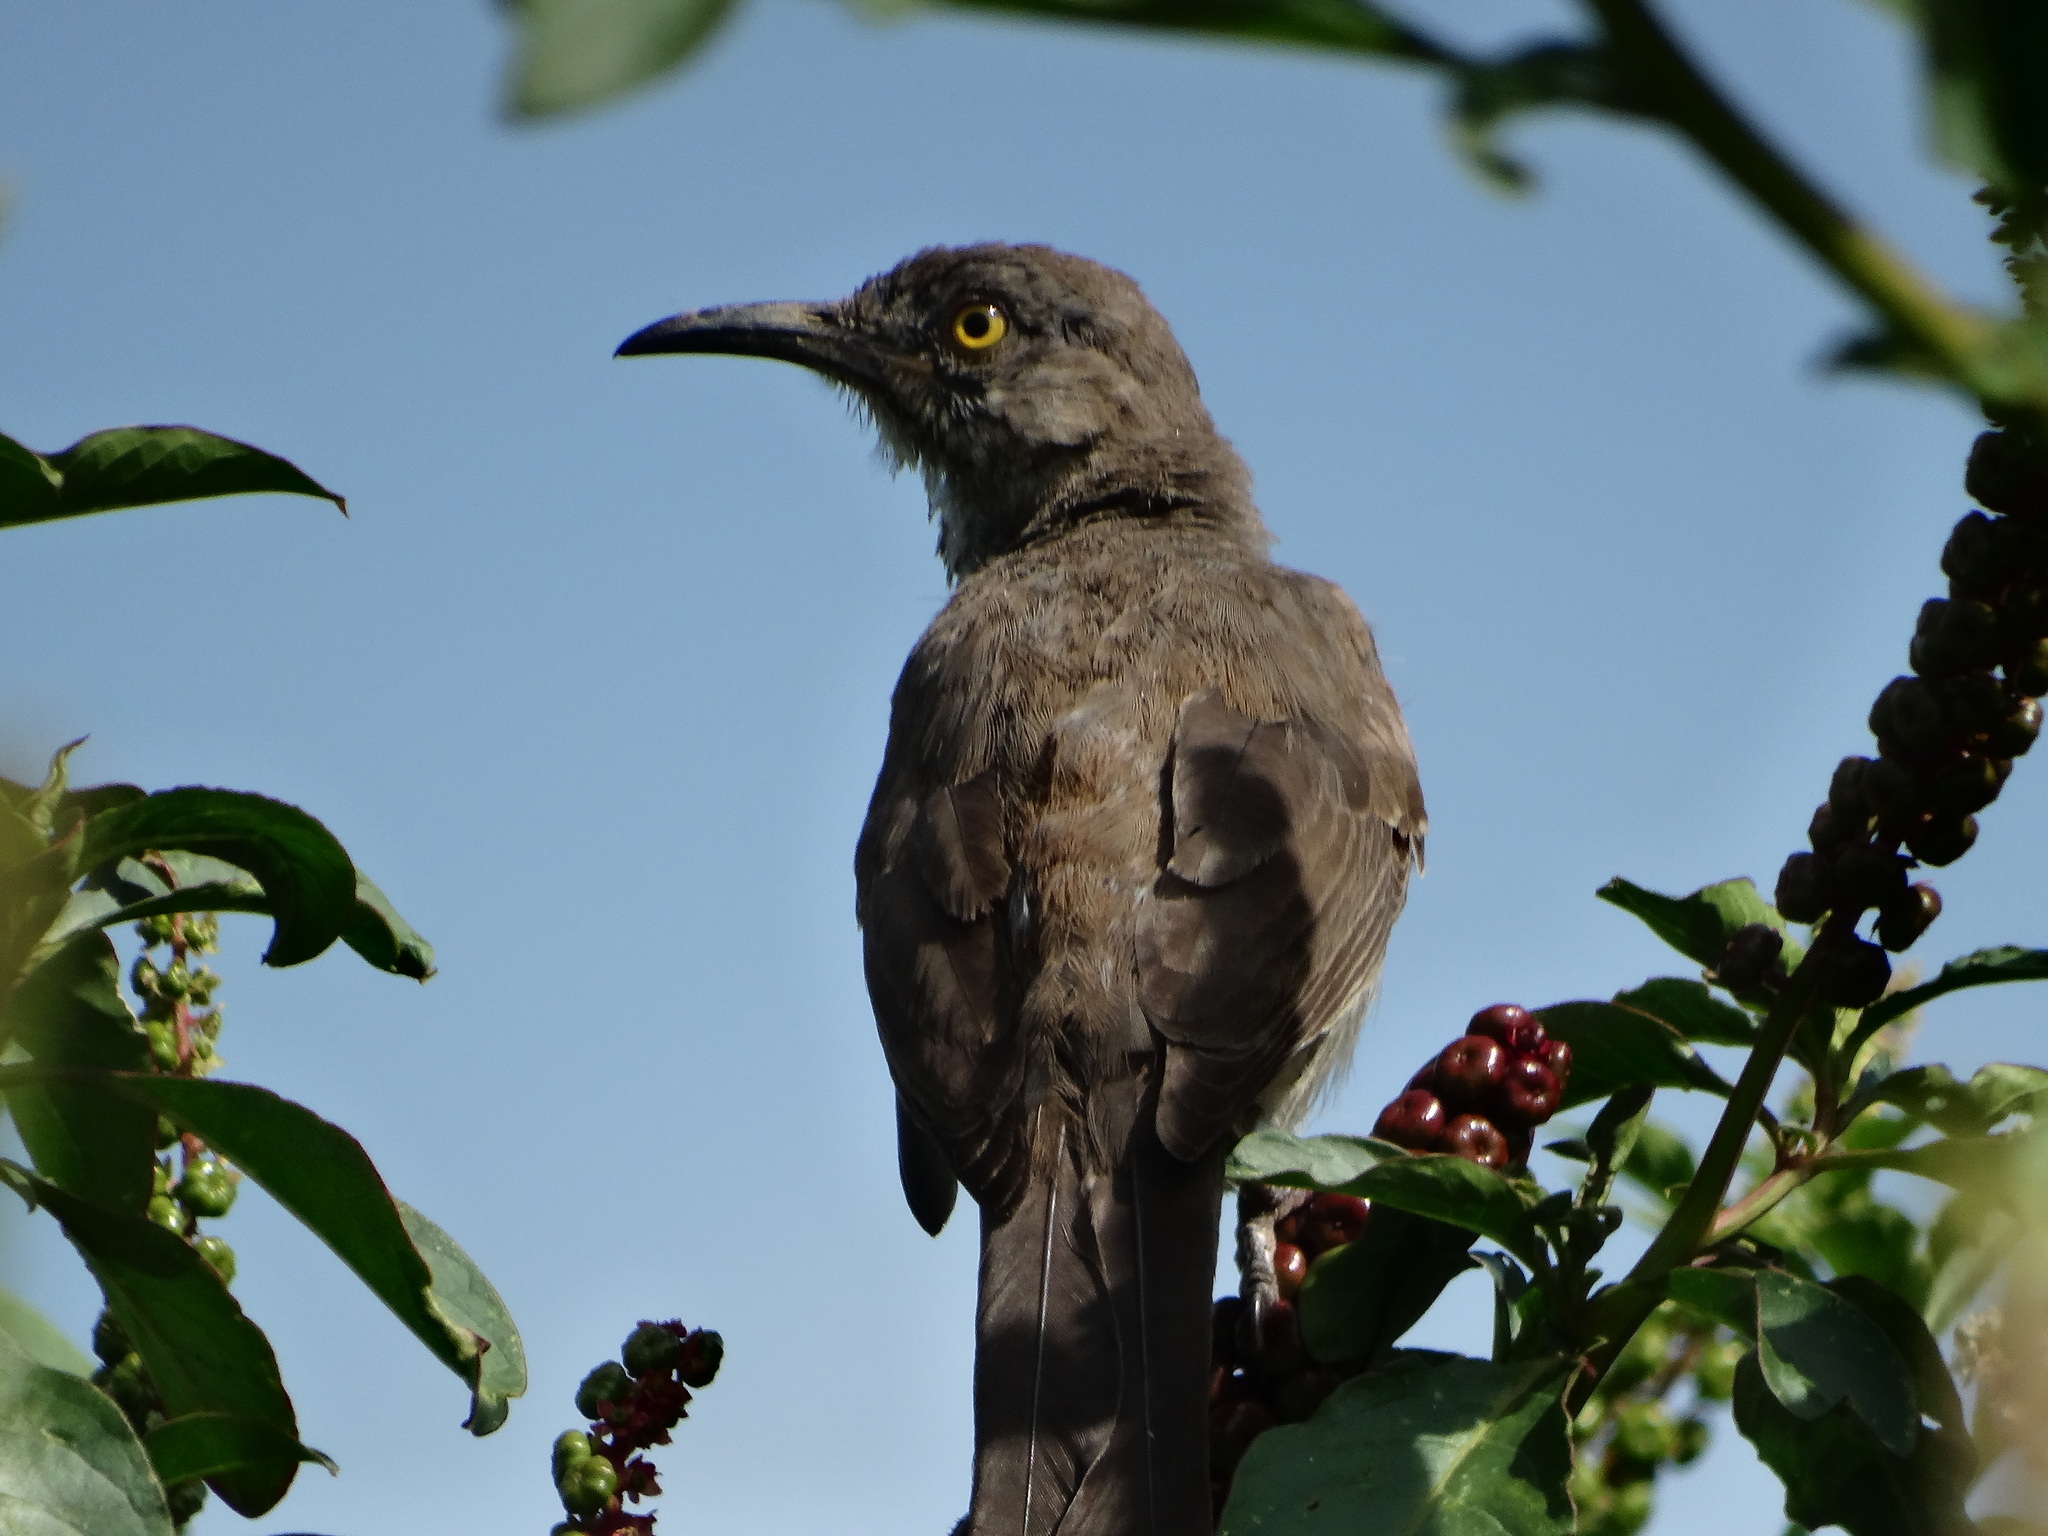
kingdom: Animalia
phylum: Chordata
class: Aves
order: Passeriformes
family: Mimidae
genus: Toxostoma
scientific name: Toxostoma curvirostre
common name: Curve-billed thrasher
